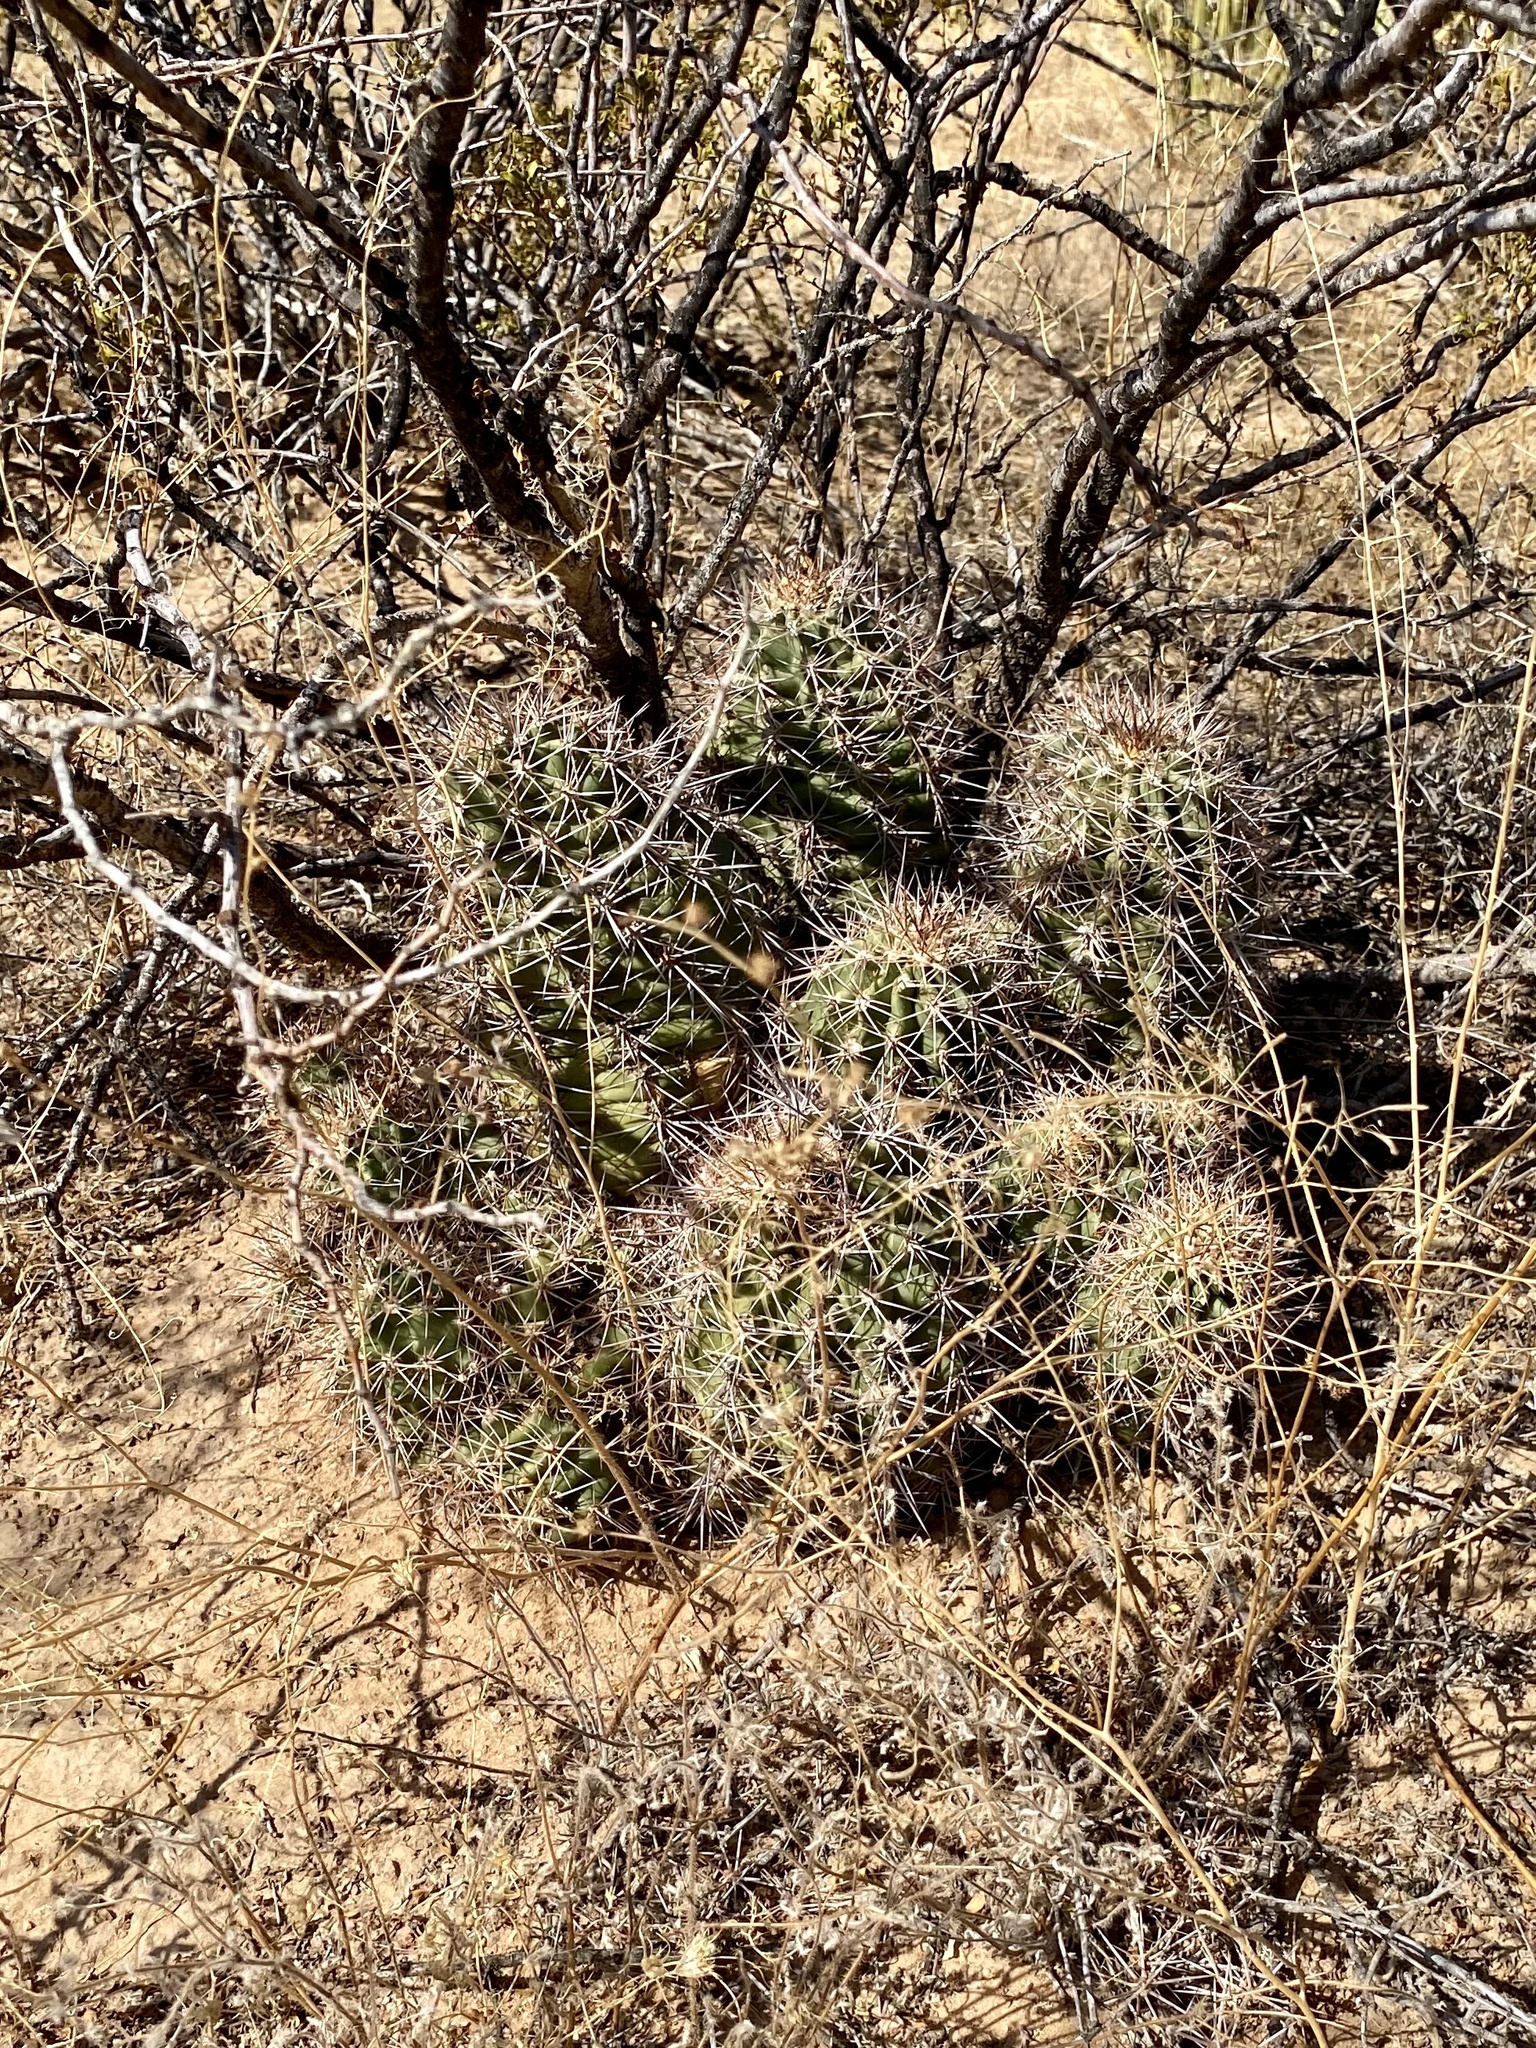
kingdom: Plantae
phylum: Tracheophyta
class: Magnoliopsida
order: Caryophyllales
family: Cactaceae
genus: Echinocereus
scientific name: Echinocereus coccineus
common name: Scarlet hedgehog cactus
